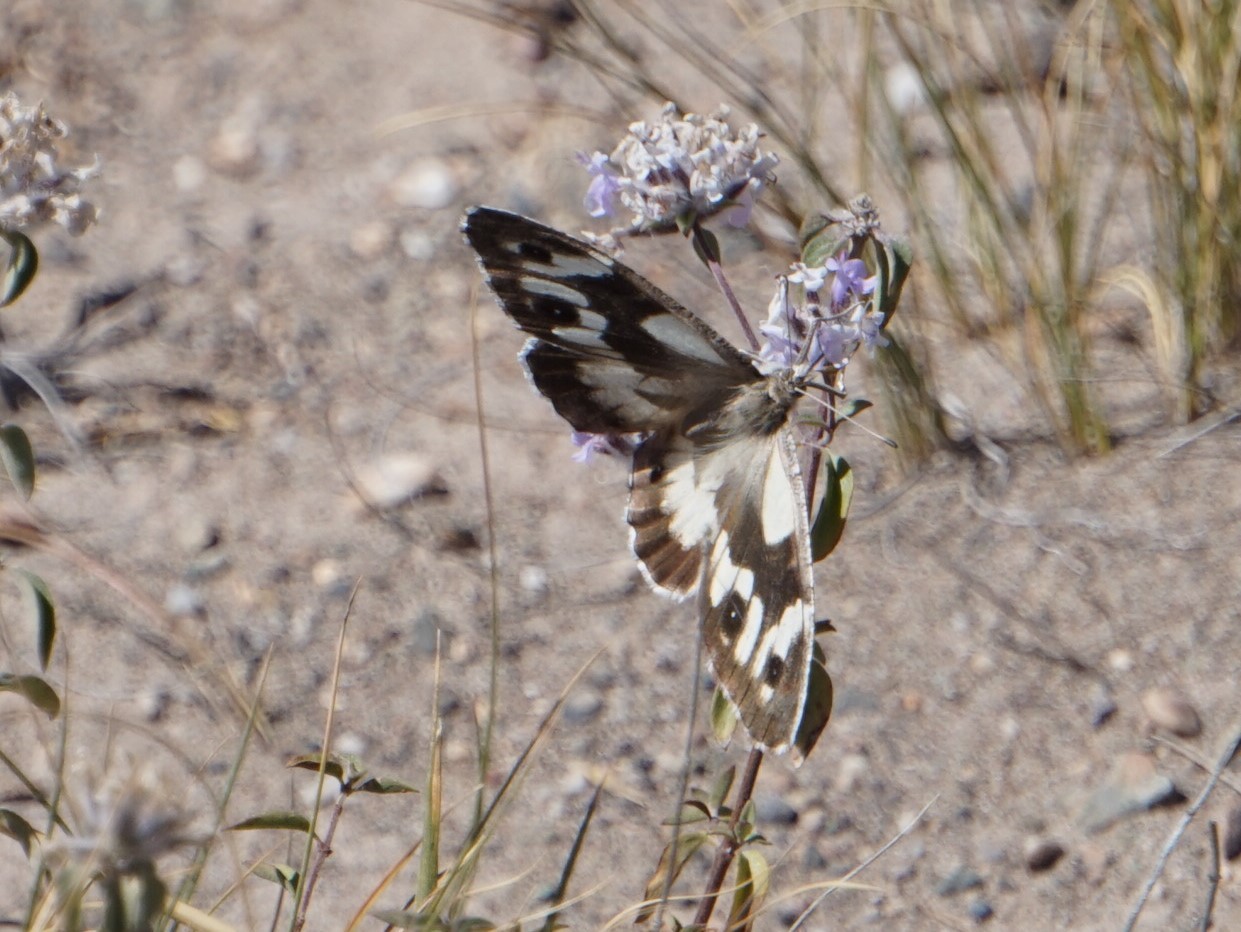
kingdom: Animalia
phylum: Arthropoda
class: Insecta
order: Lepidoptera
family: Nymphalidae
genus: Satyrus
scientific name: Satyrus Chazara heydenreichi
